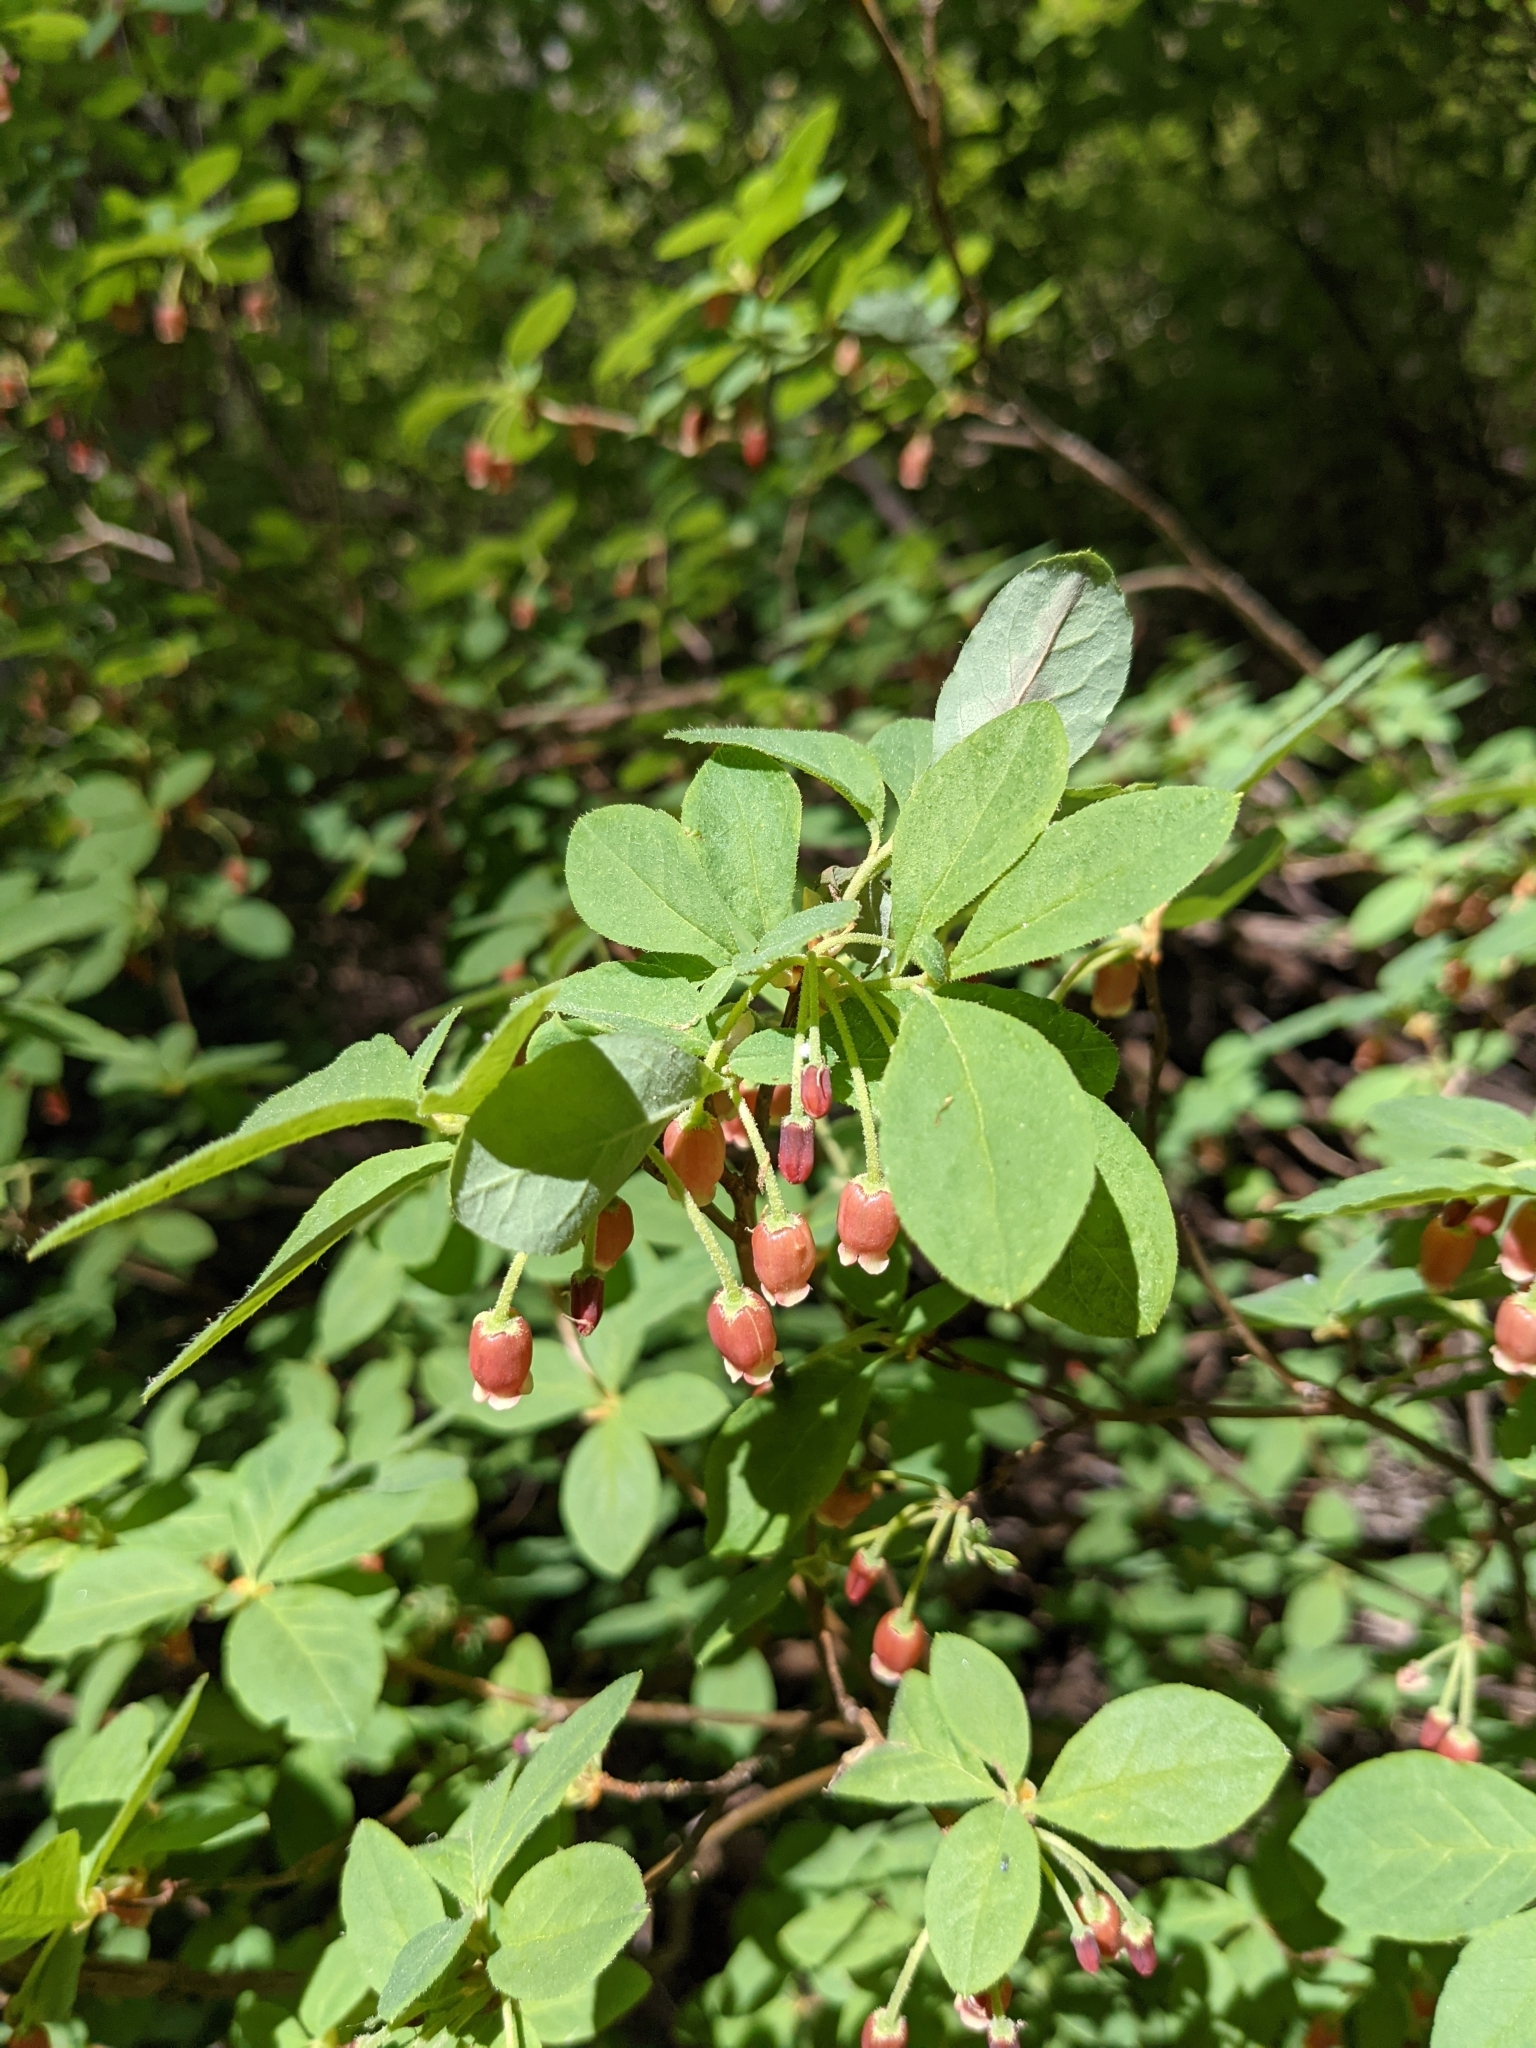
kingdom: Plantae
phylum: Tracheophyta
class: Magnoliopsida
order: Ericales
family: Ericaceae
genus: Rhododendron
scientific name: Rhododendron menziesii
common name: Pacific menziesia
